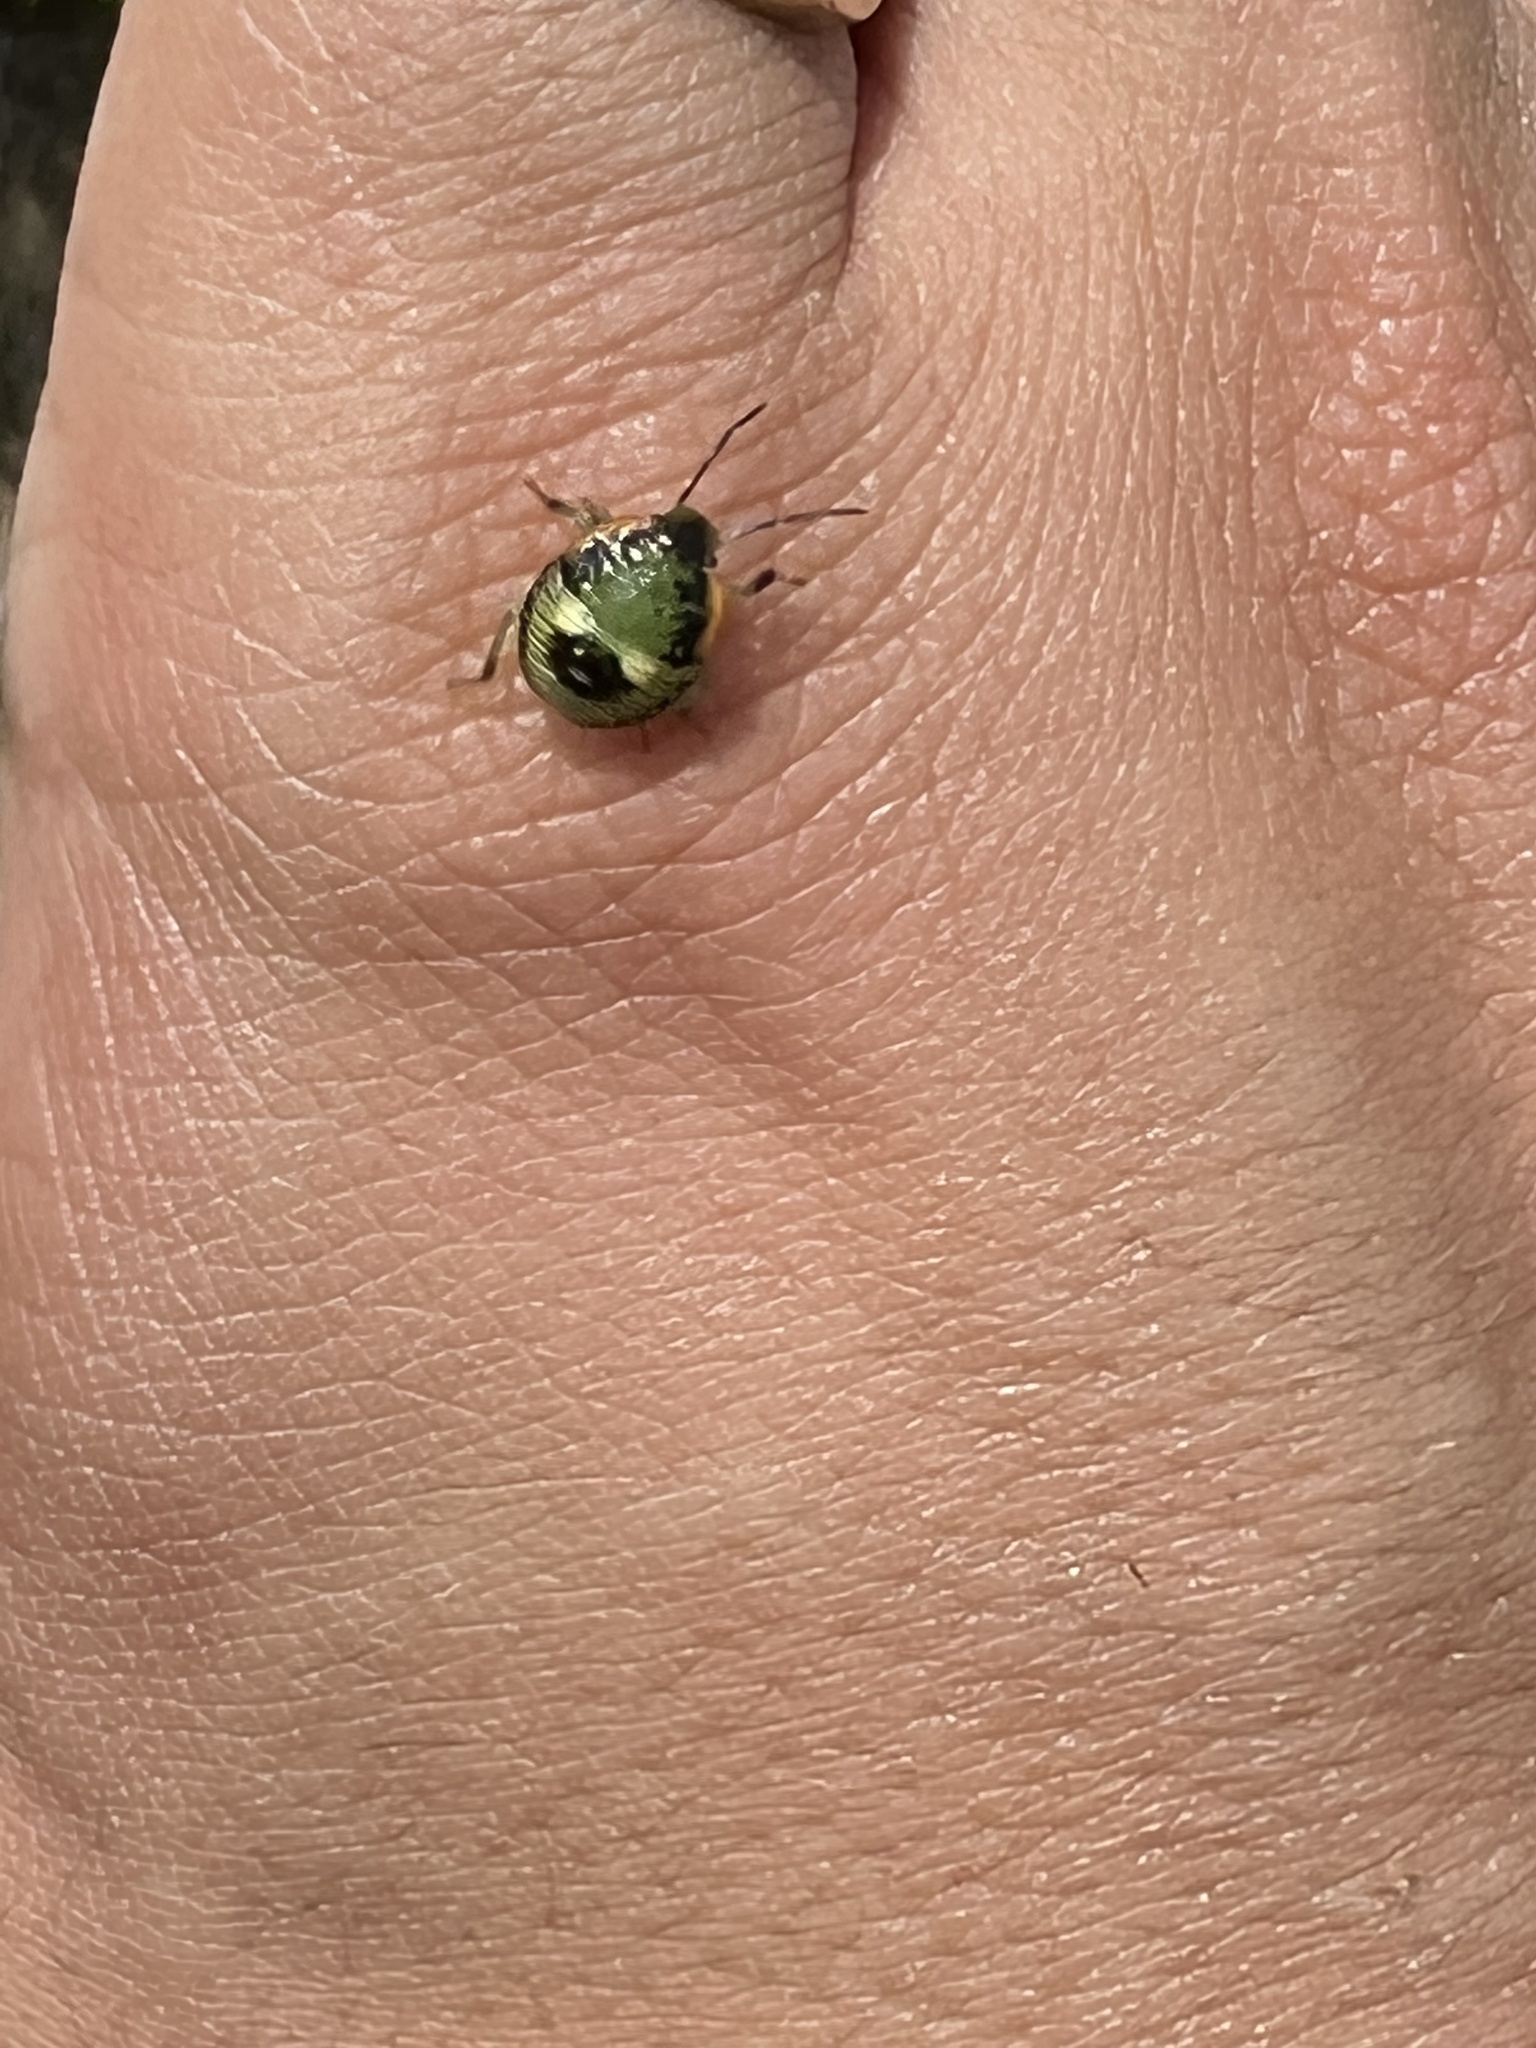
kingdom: Animalia
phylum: Arthropoda
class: Insecta
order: Hemiptera
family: Pentatomidae
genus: Chinavia
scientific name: Chinavia hilaris
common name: Green stink bug
